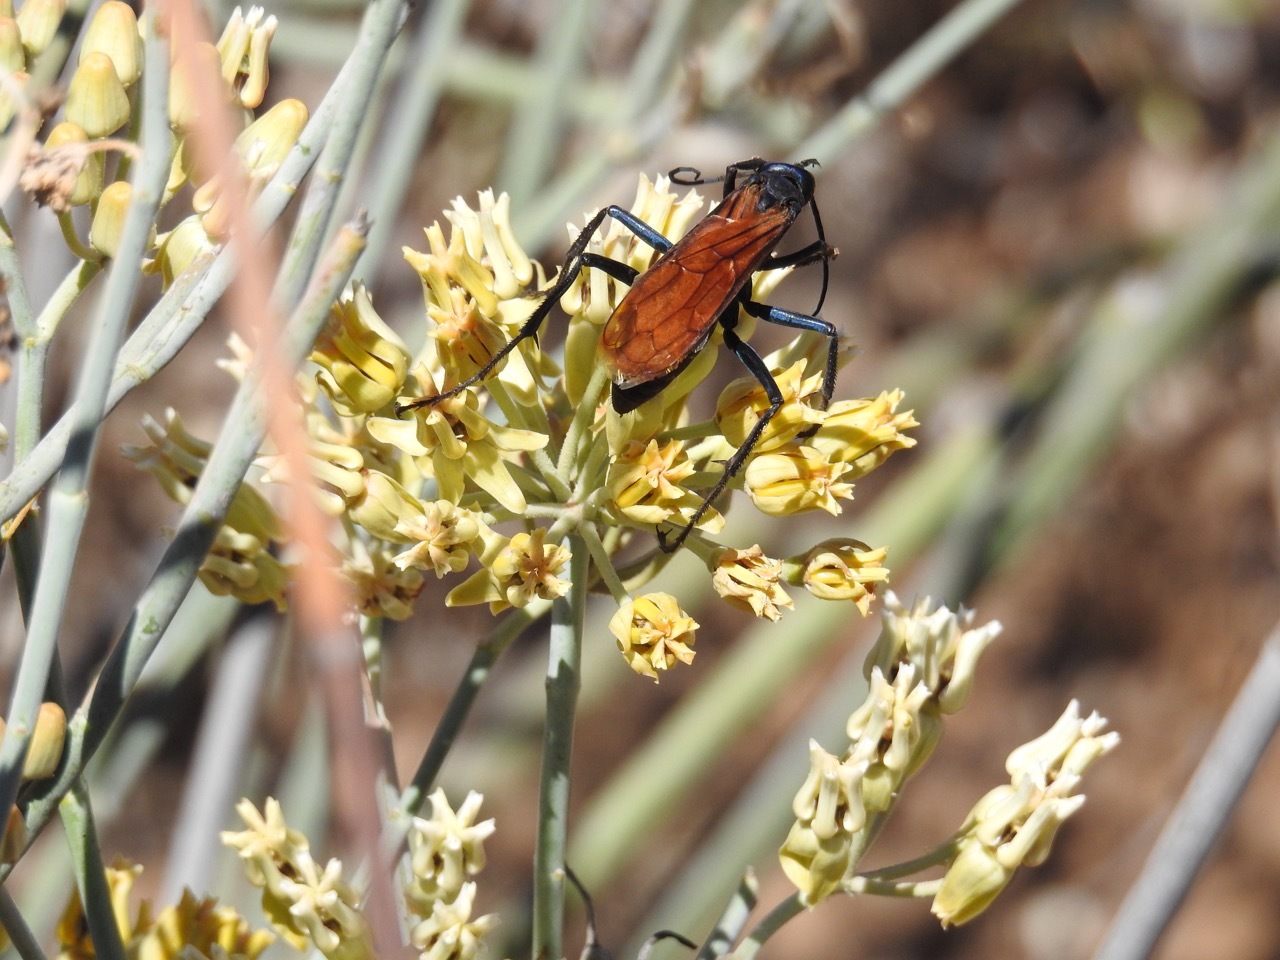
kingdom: Animalia
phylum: Arthropoda
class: Insecta
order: Hymenoptera
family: Pompilidae
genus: Pepsis
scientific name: Pepsis thisbe
